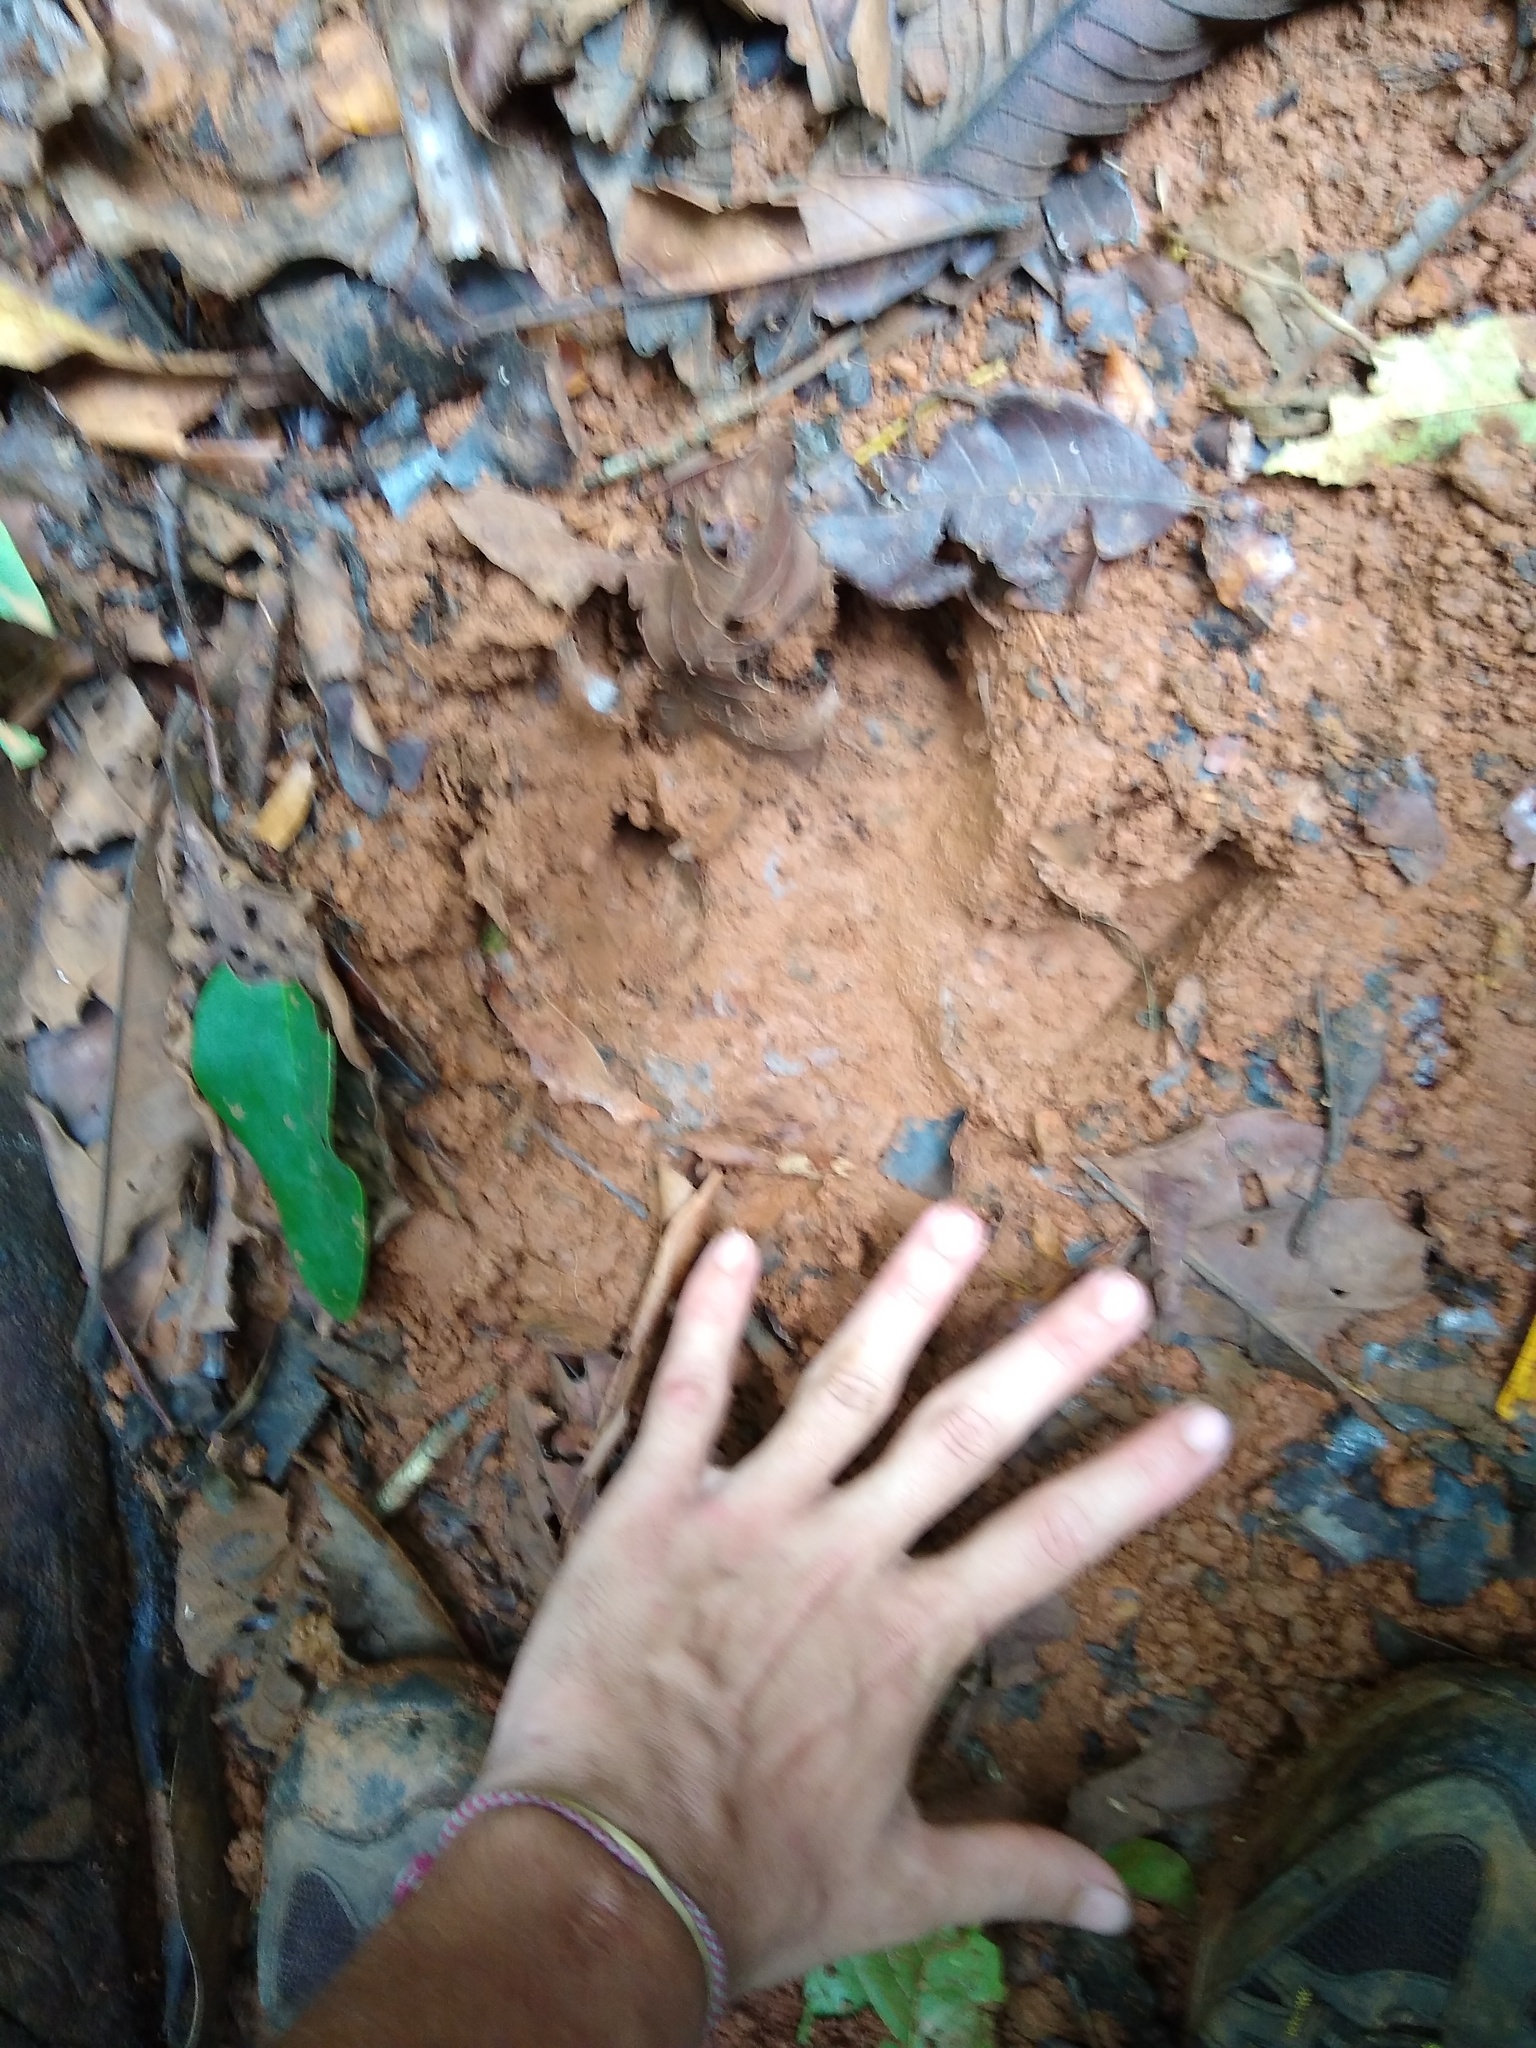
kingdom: Animalia
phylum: Chordata
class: Mammalia
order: Perissodactyla
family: Tapiridae
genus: Tapirella
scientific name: Tapirella bairdii
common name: Baird's tapir
